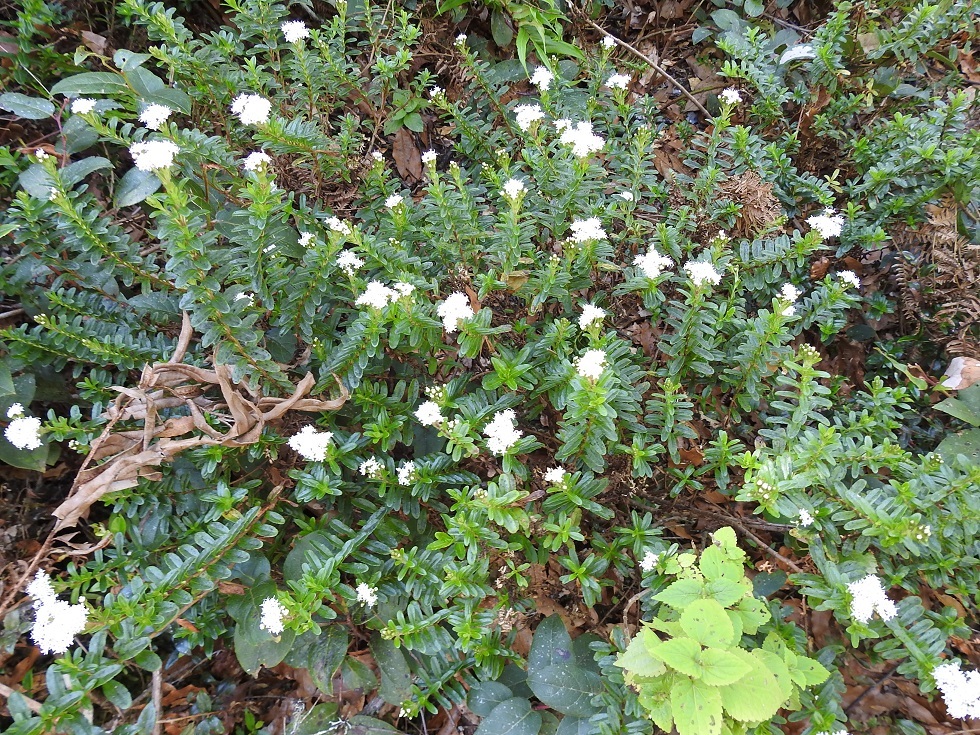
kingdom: Plantae
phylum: Tracheophyta
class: Magnoliopsida
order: Asterales
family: Asteraceae
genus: Oxylobus
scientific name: Oxylobus oaxacanus
